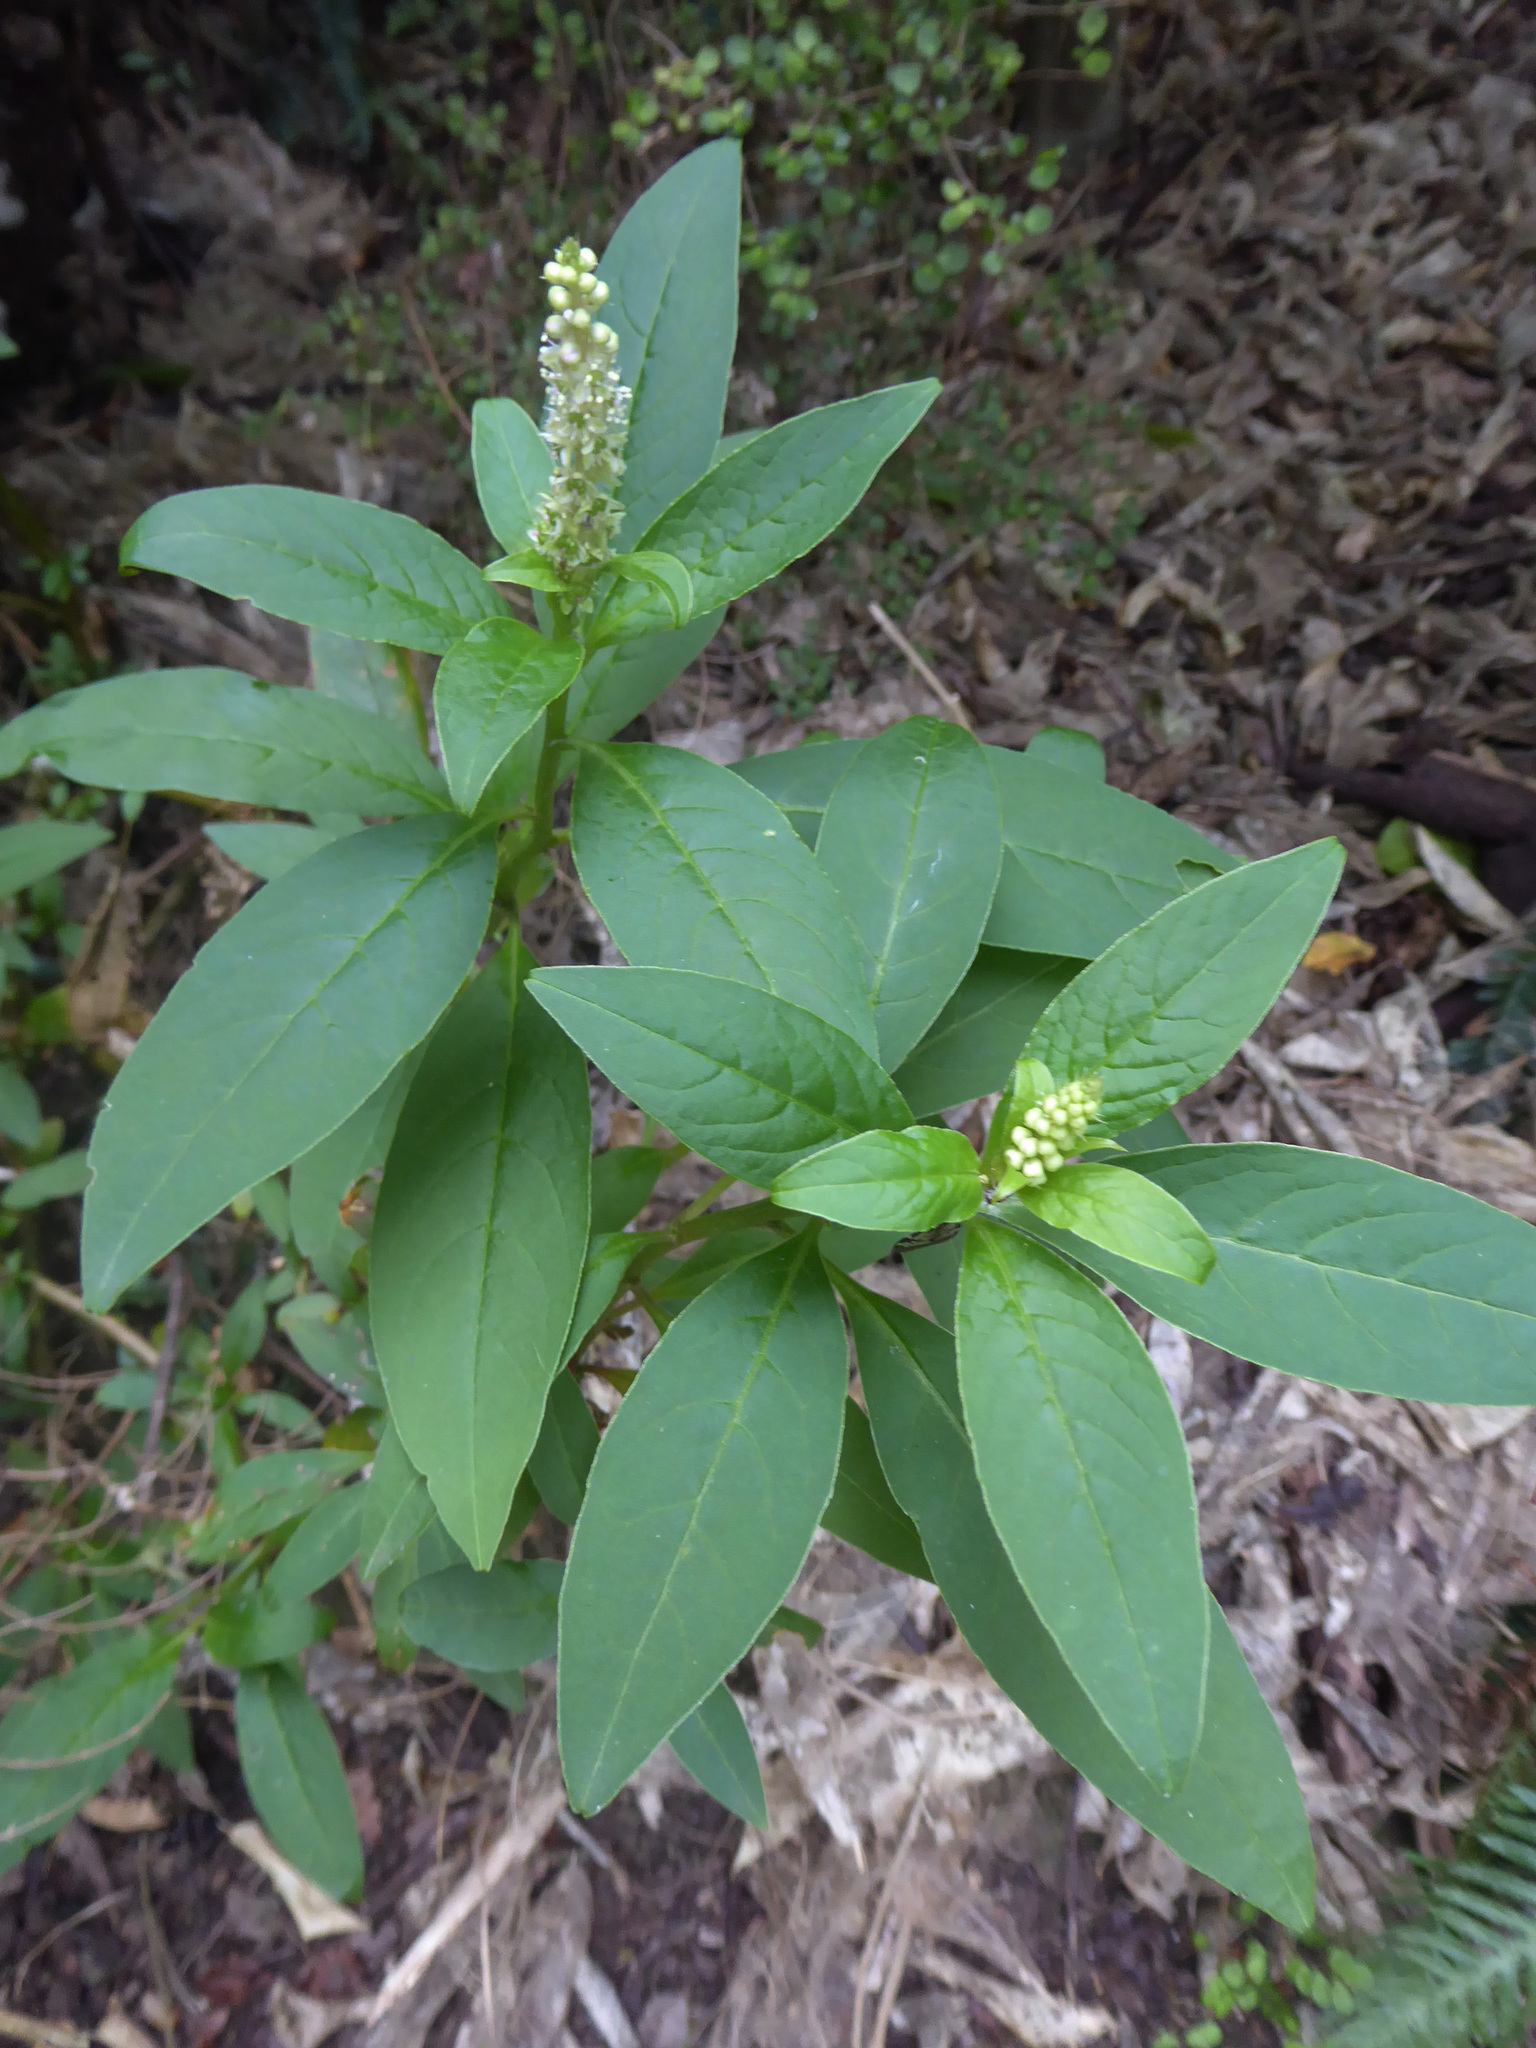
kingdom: Plantae
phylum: Tracheophyta
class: Magnoliopsida
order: Caryophyllales
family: Phytolaccaceae
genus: Phytolacca
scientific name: Phytolacca icosandra
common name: Button pokeweed
